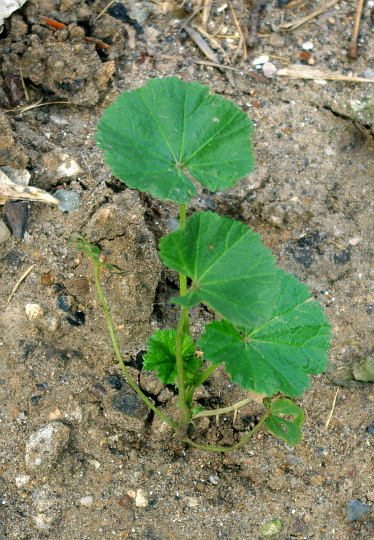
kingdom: Plantae
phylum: Tracheophyta
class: Magnoliopsida
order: Malvales
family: Malvaceae
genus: Malva
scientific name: Malva pusilla
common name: Small mallow
